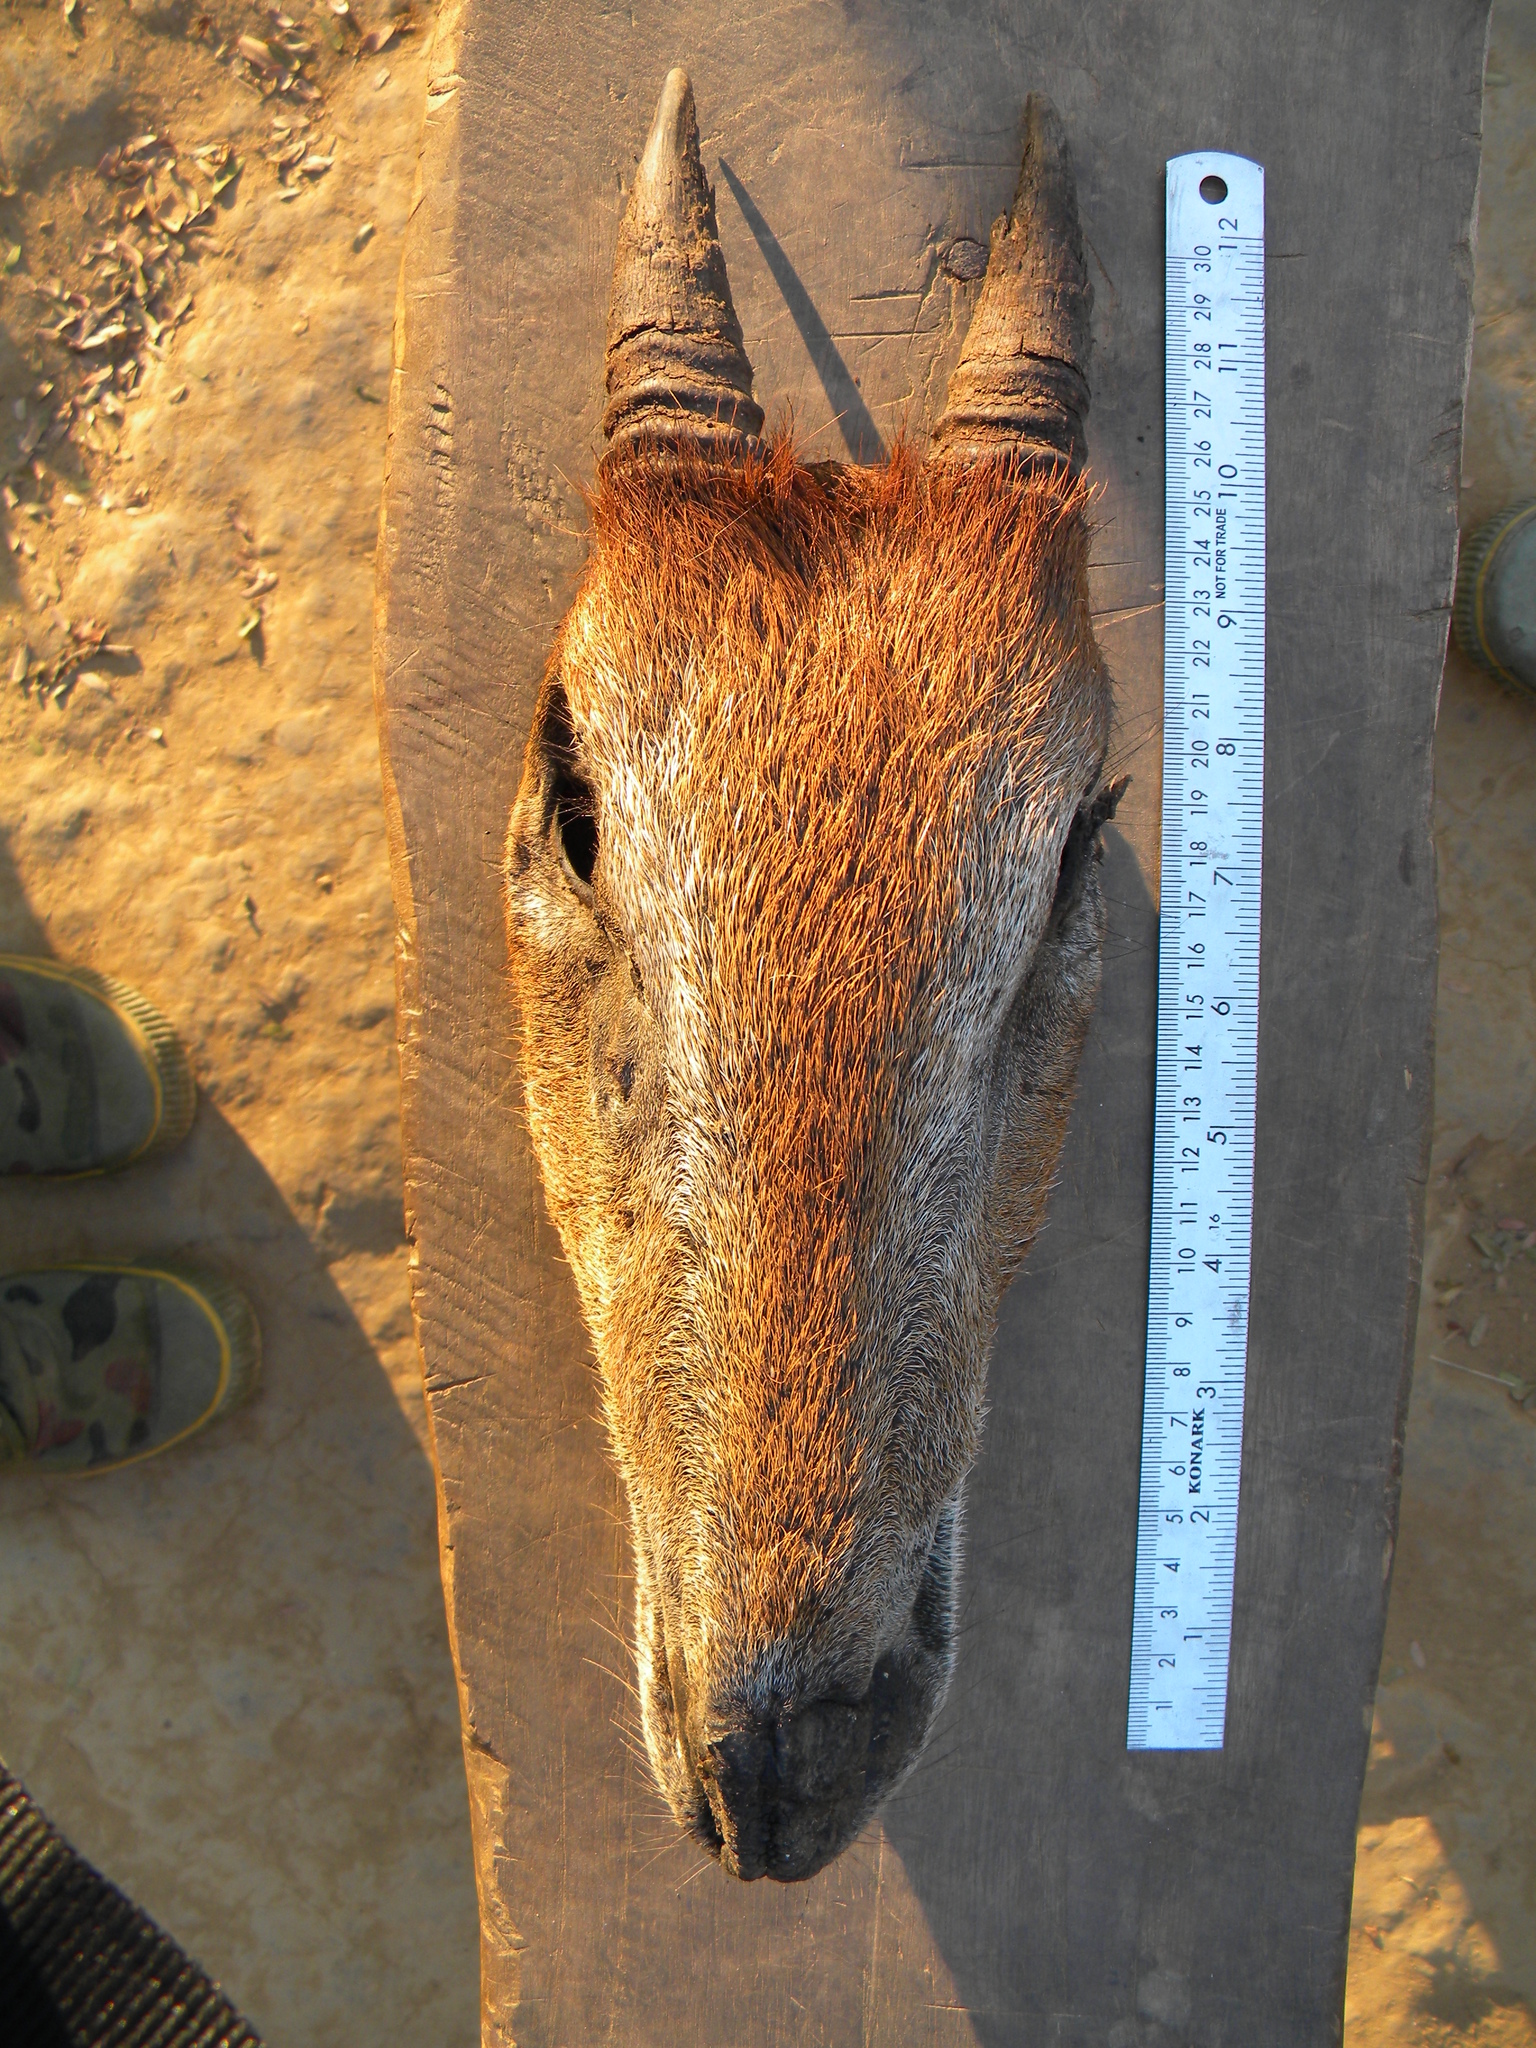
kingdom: Animalia
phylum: Chordata
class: Mammalia
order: Artiodactyla
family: Bovidae
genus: Capricornis
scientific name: Capricornis rubidus
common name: Red serow
